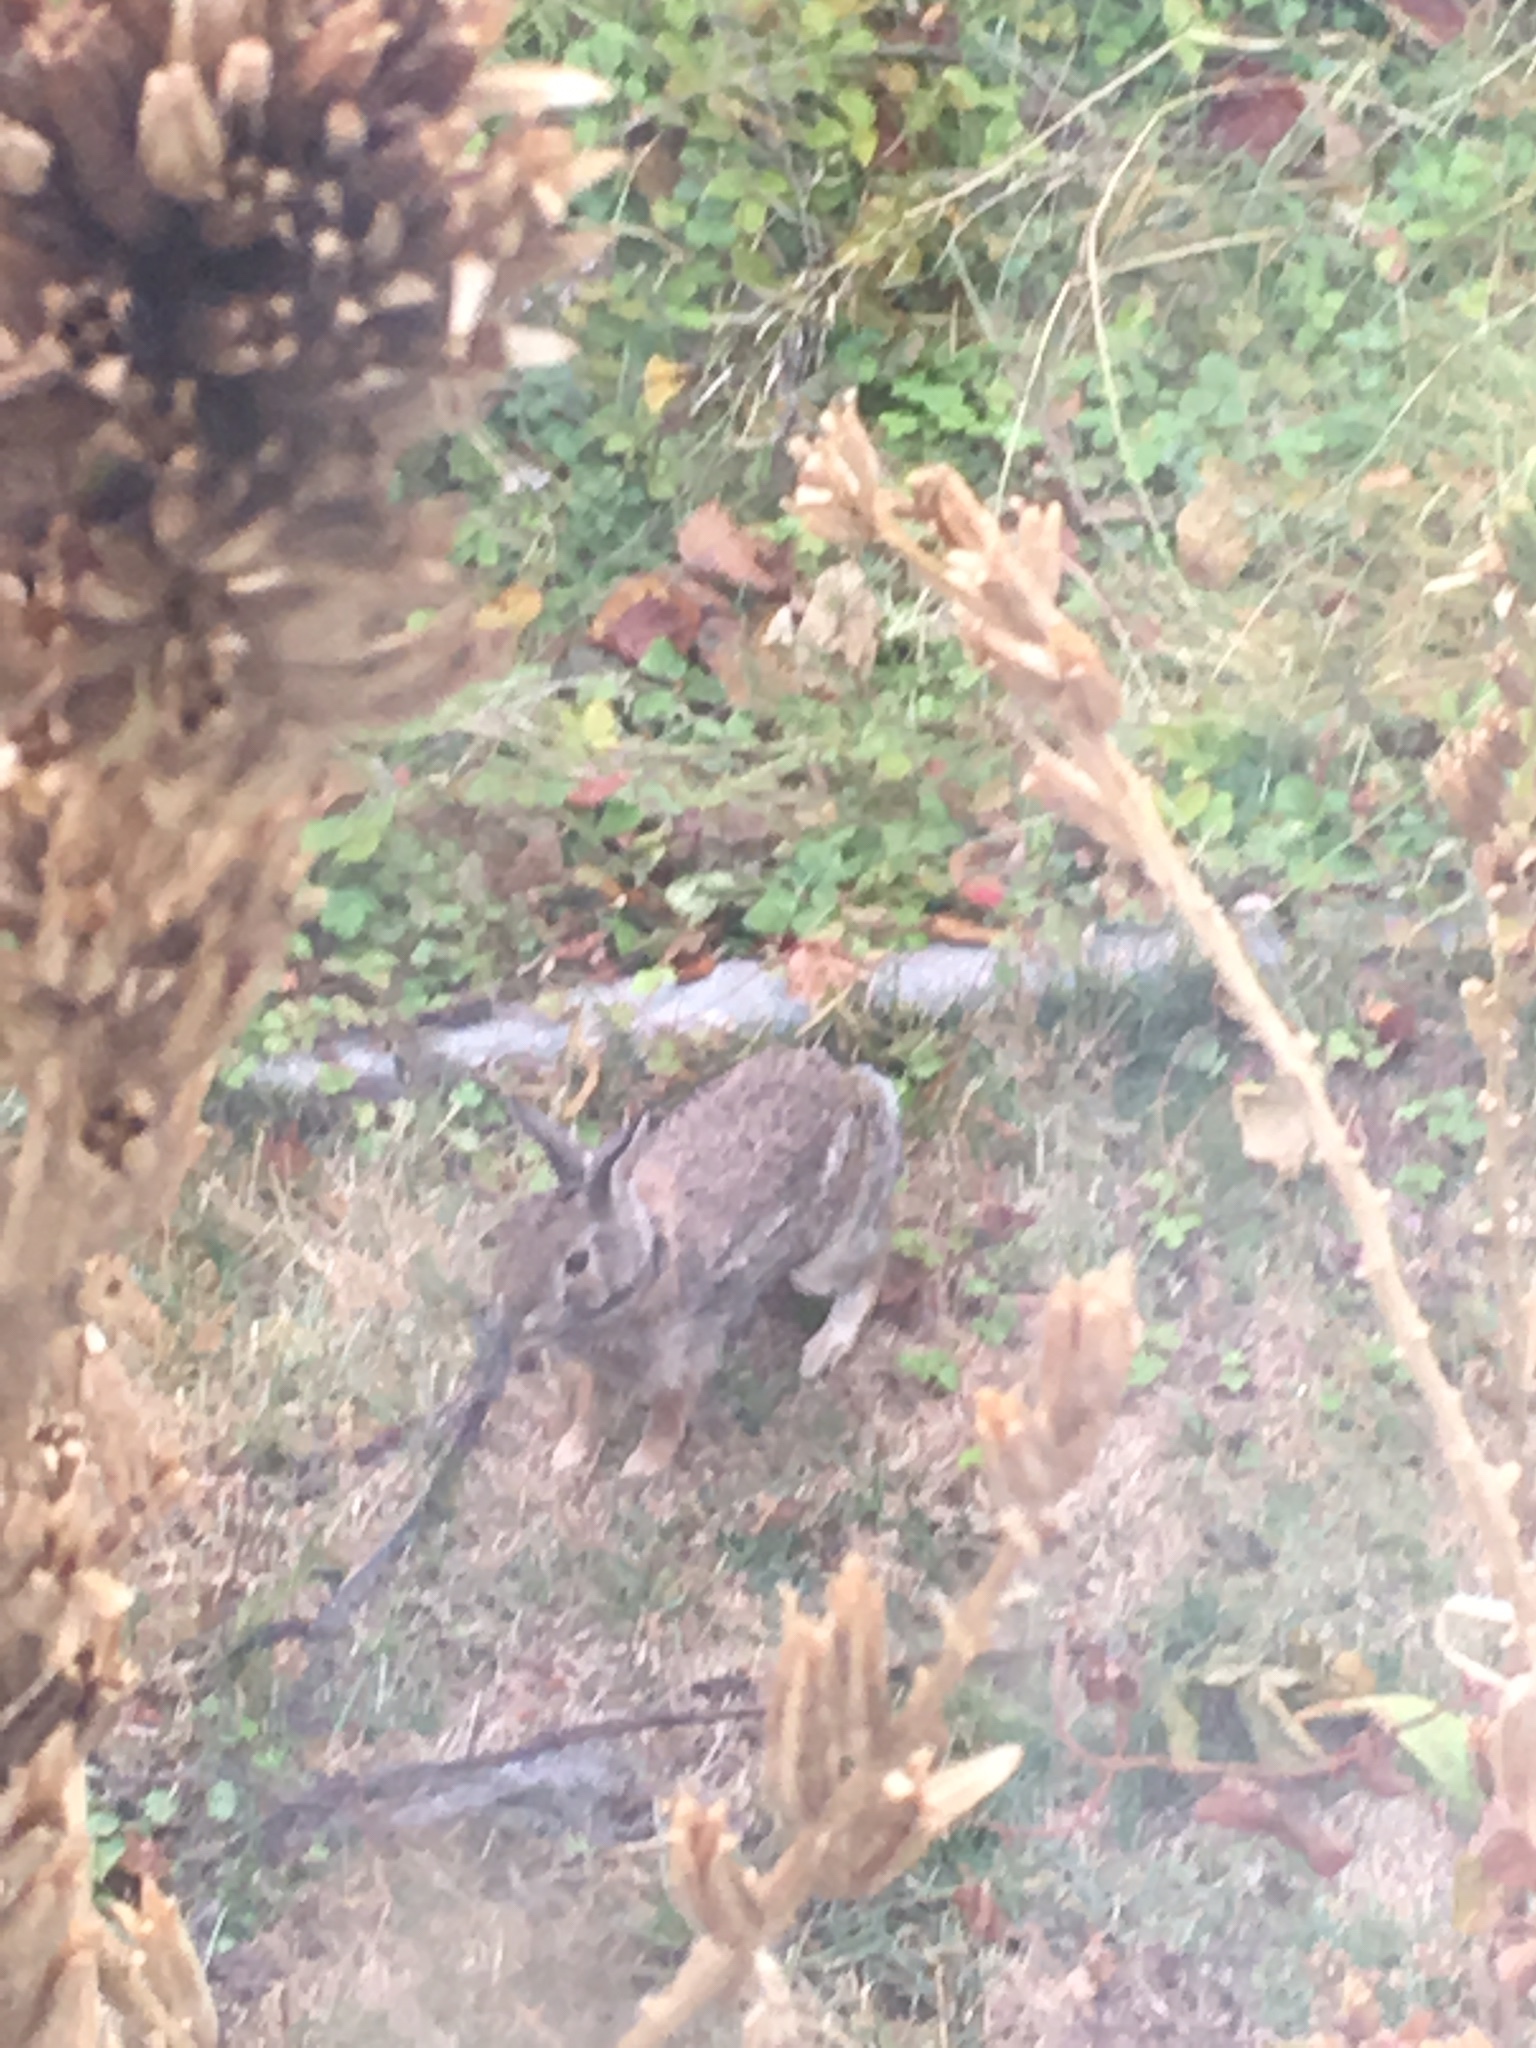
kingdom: Animalia
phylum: Chordata
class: Mammalia
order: Lagomorpha
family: Leporidae
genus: Sylvilagus
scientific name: Sylvilagus floridanus
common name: Eastern cottontail
